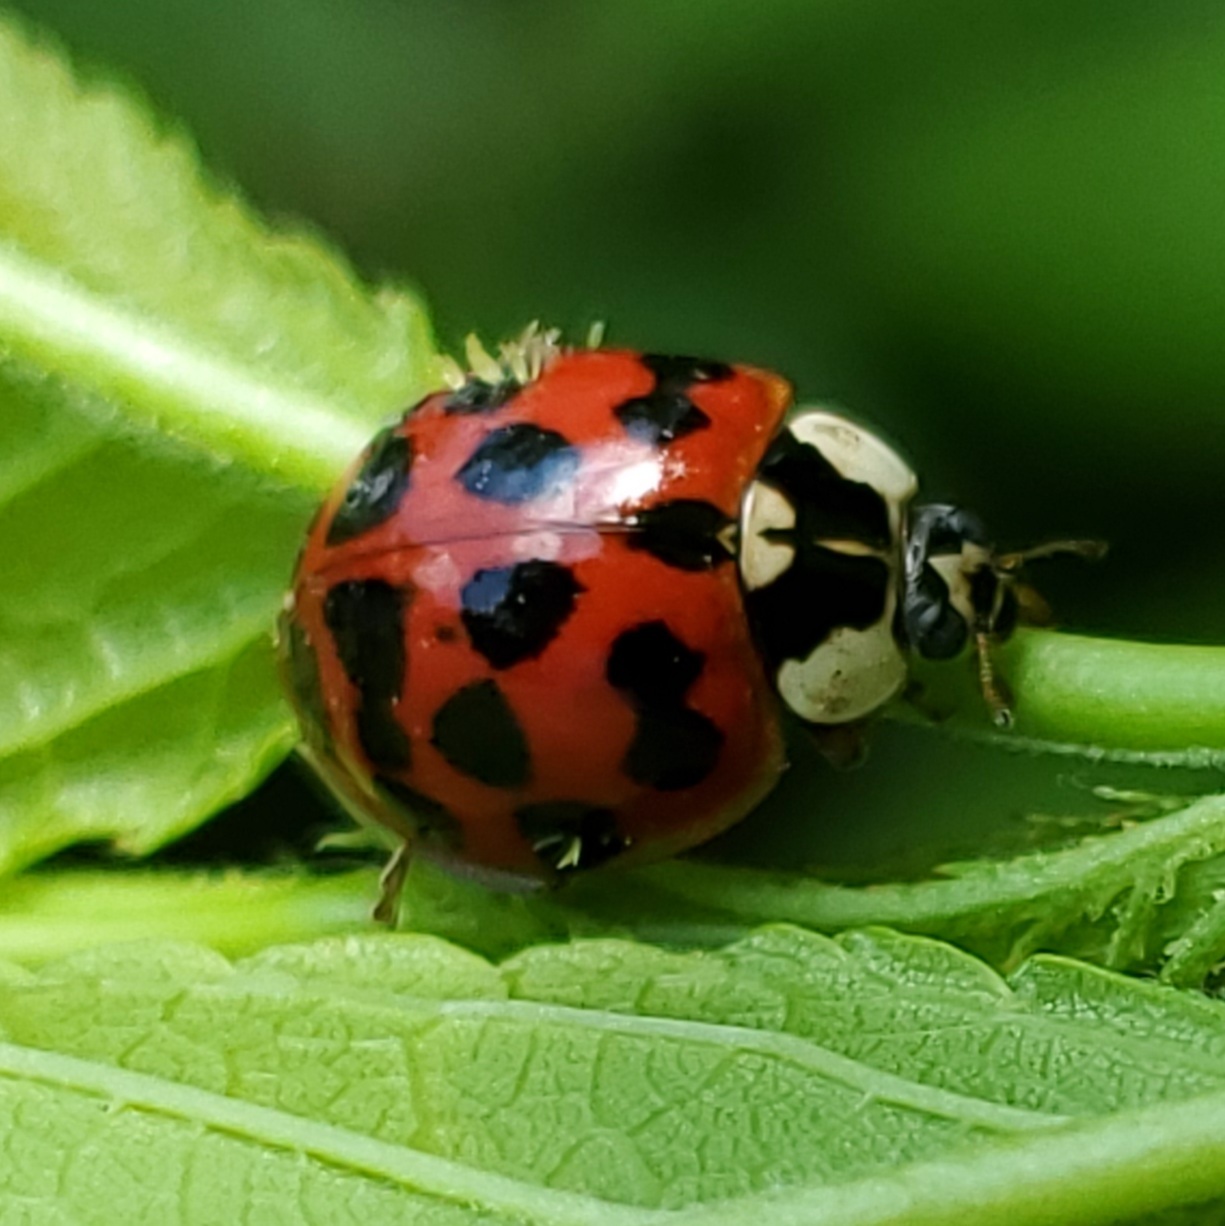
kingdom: Animalia
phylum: Arthropoda
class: Insecta
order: Coleoptera
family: Coccinellidae
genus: Harmonia
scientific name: Harmonia axyridis
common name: Harlequin ladybird
